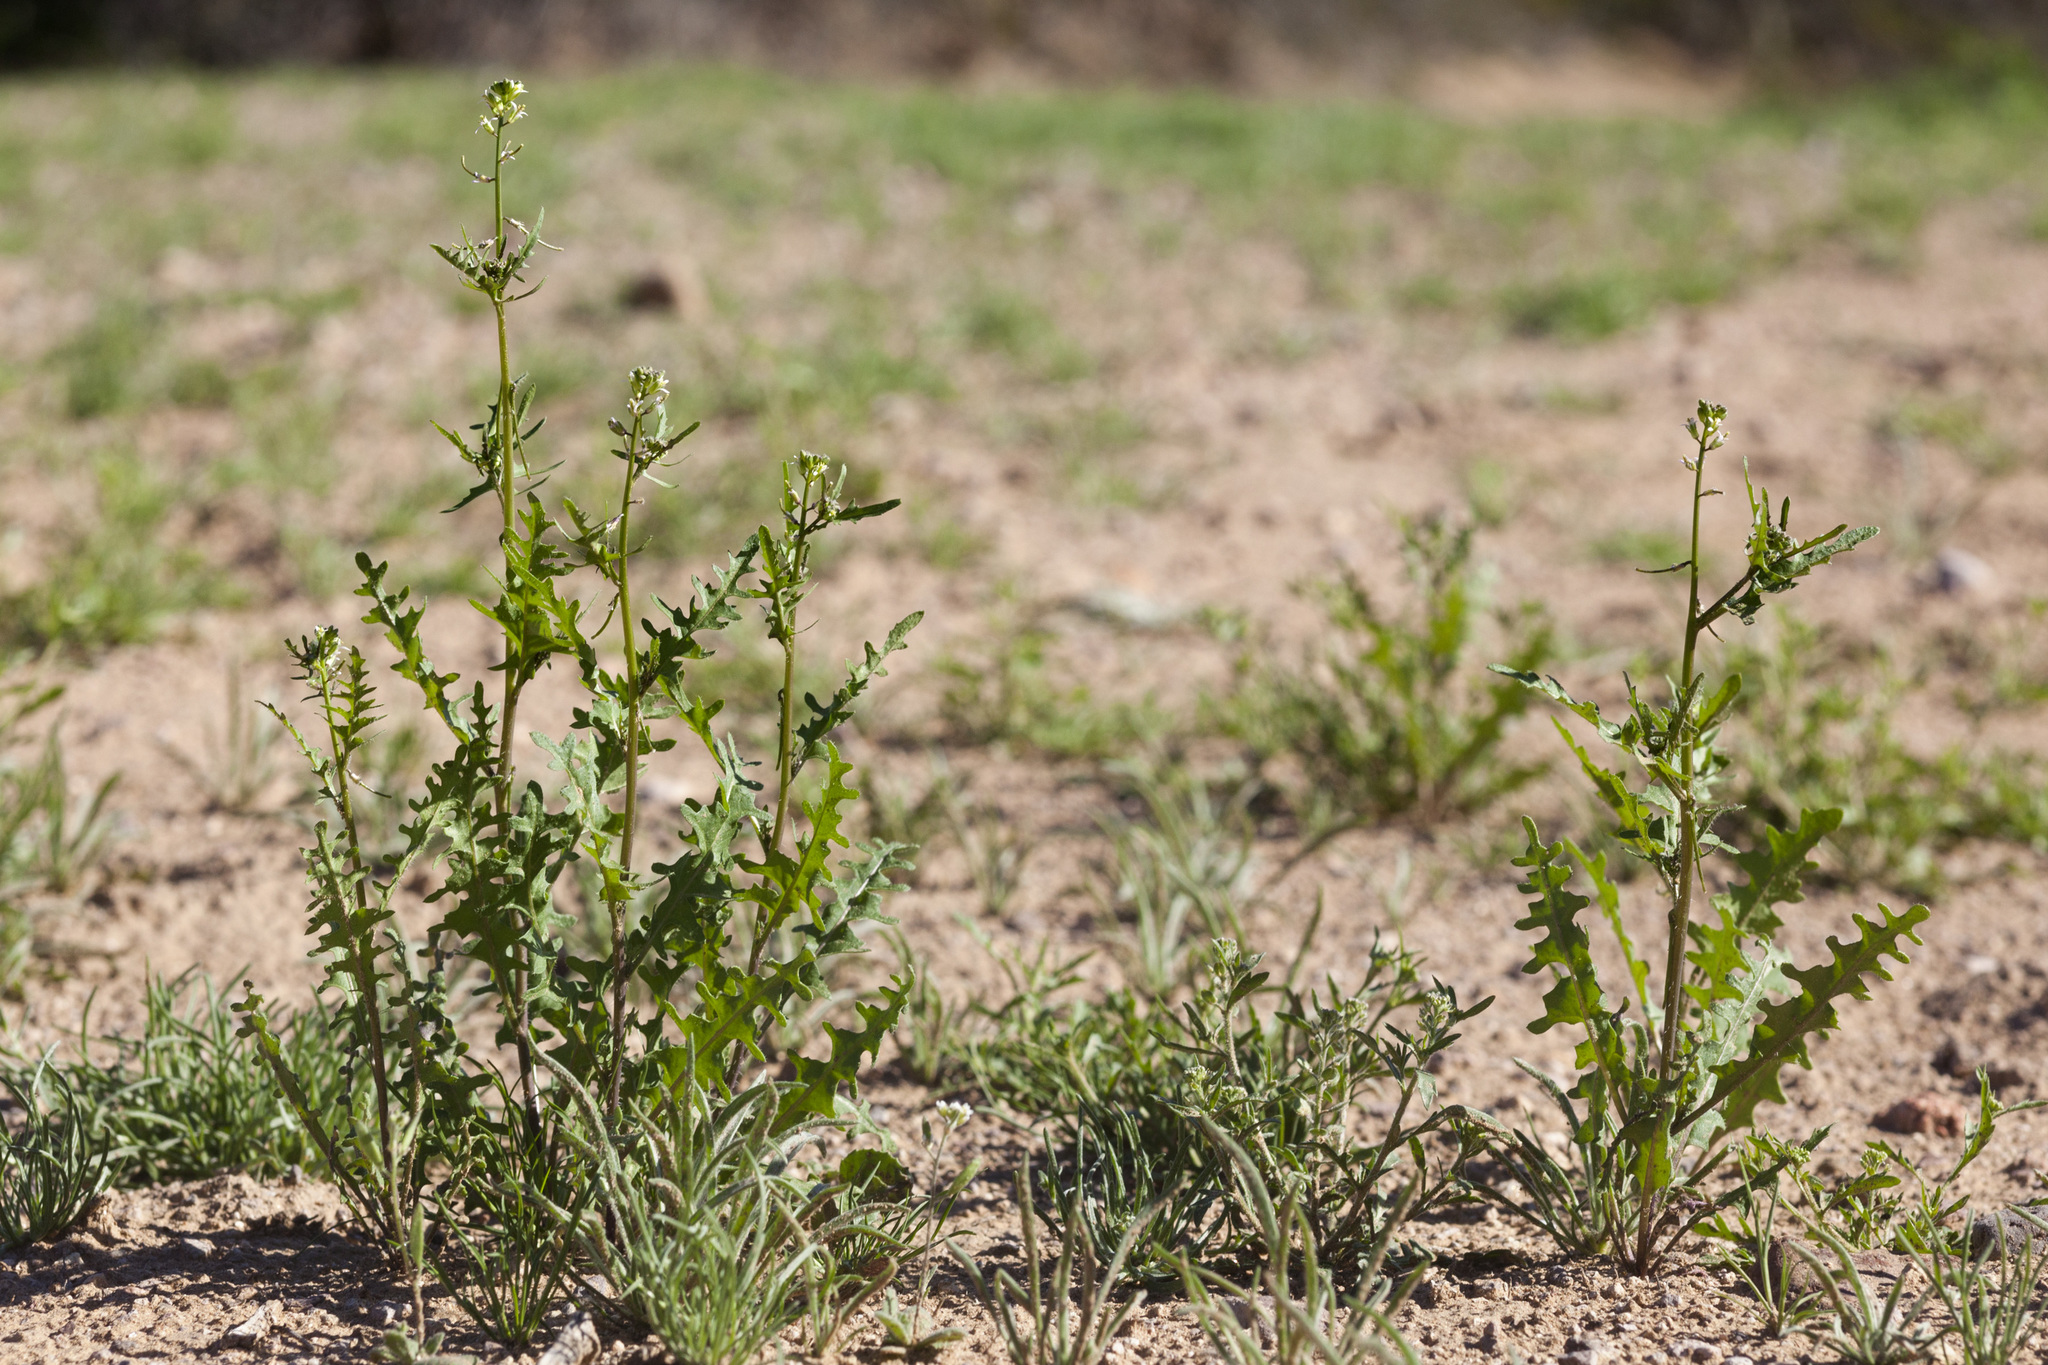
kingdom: Plantae
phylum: Tracheophyta
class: Magnoliopsida
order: Brassicales
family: Brassicaceae
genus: Streptanthus
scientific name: Streptanthus lasiophyllus
